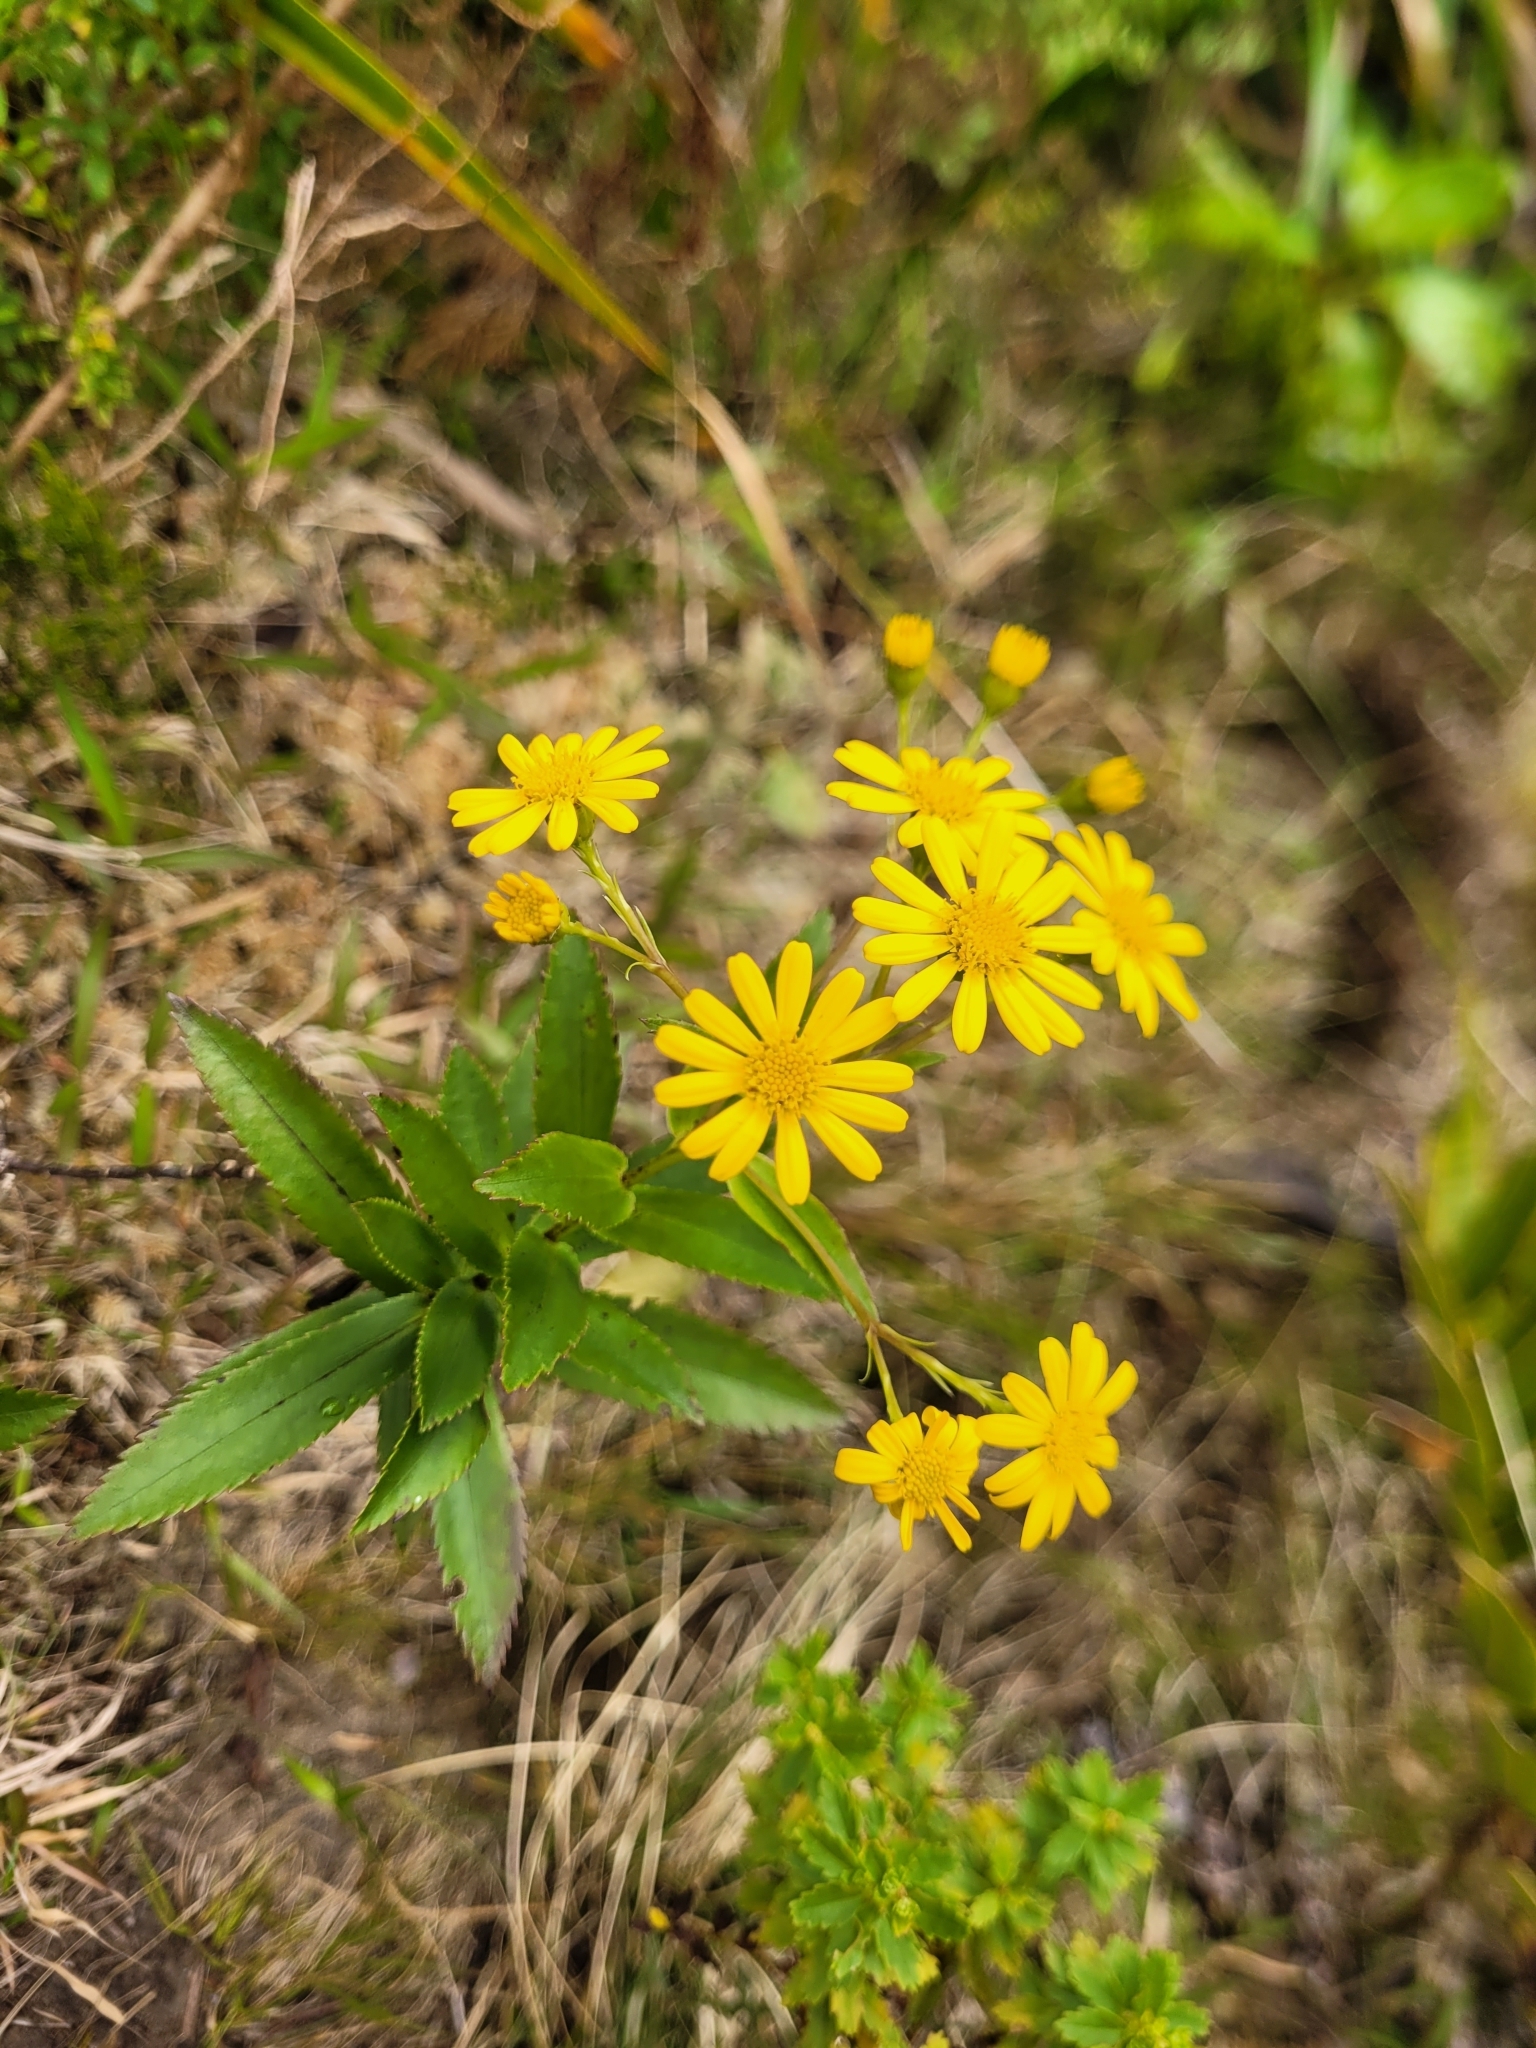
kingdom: Plantae
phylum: Tracheophyta
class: Magnoliopsida
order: Asterales
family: Asteraceae
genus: Faujasia
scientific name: Faujasia salicifolia
